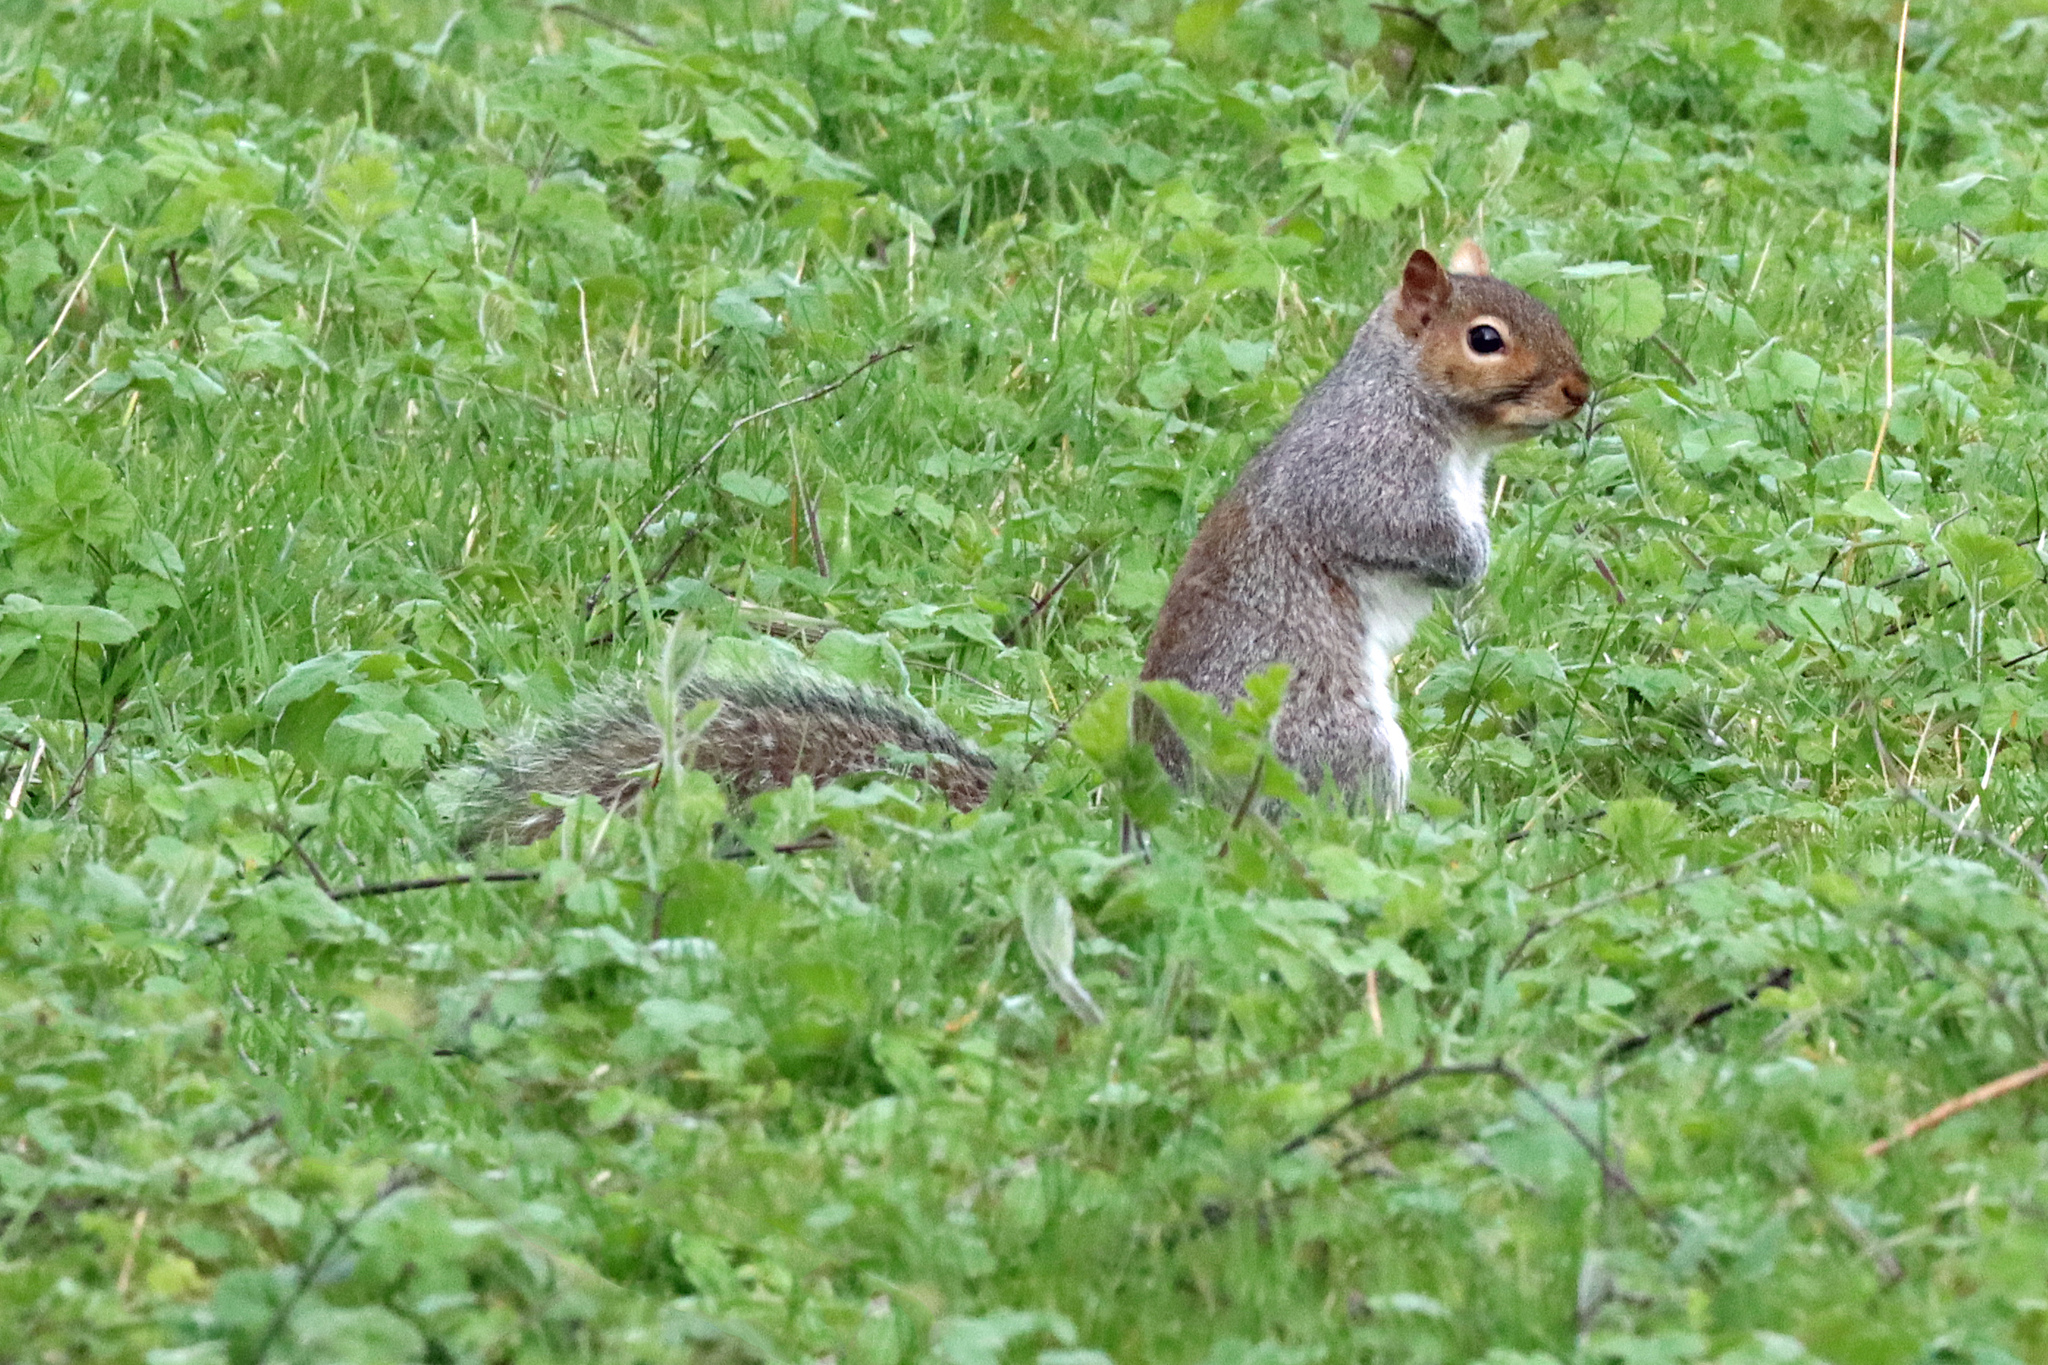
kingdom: Animalia
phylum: Chordata
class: Mammalia
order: Rodentia
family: Sciuridae
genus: Sciurus
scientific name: Sciurus carolinensis
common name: Eastern gray squirrel
